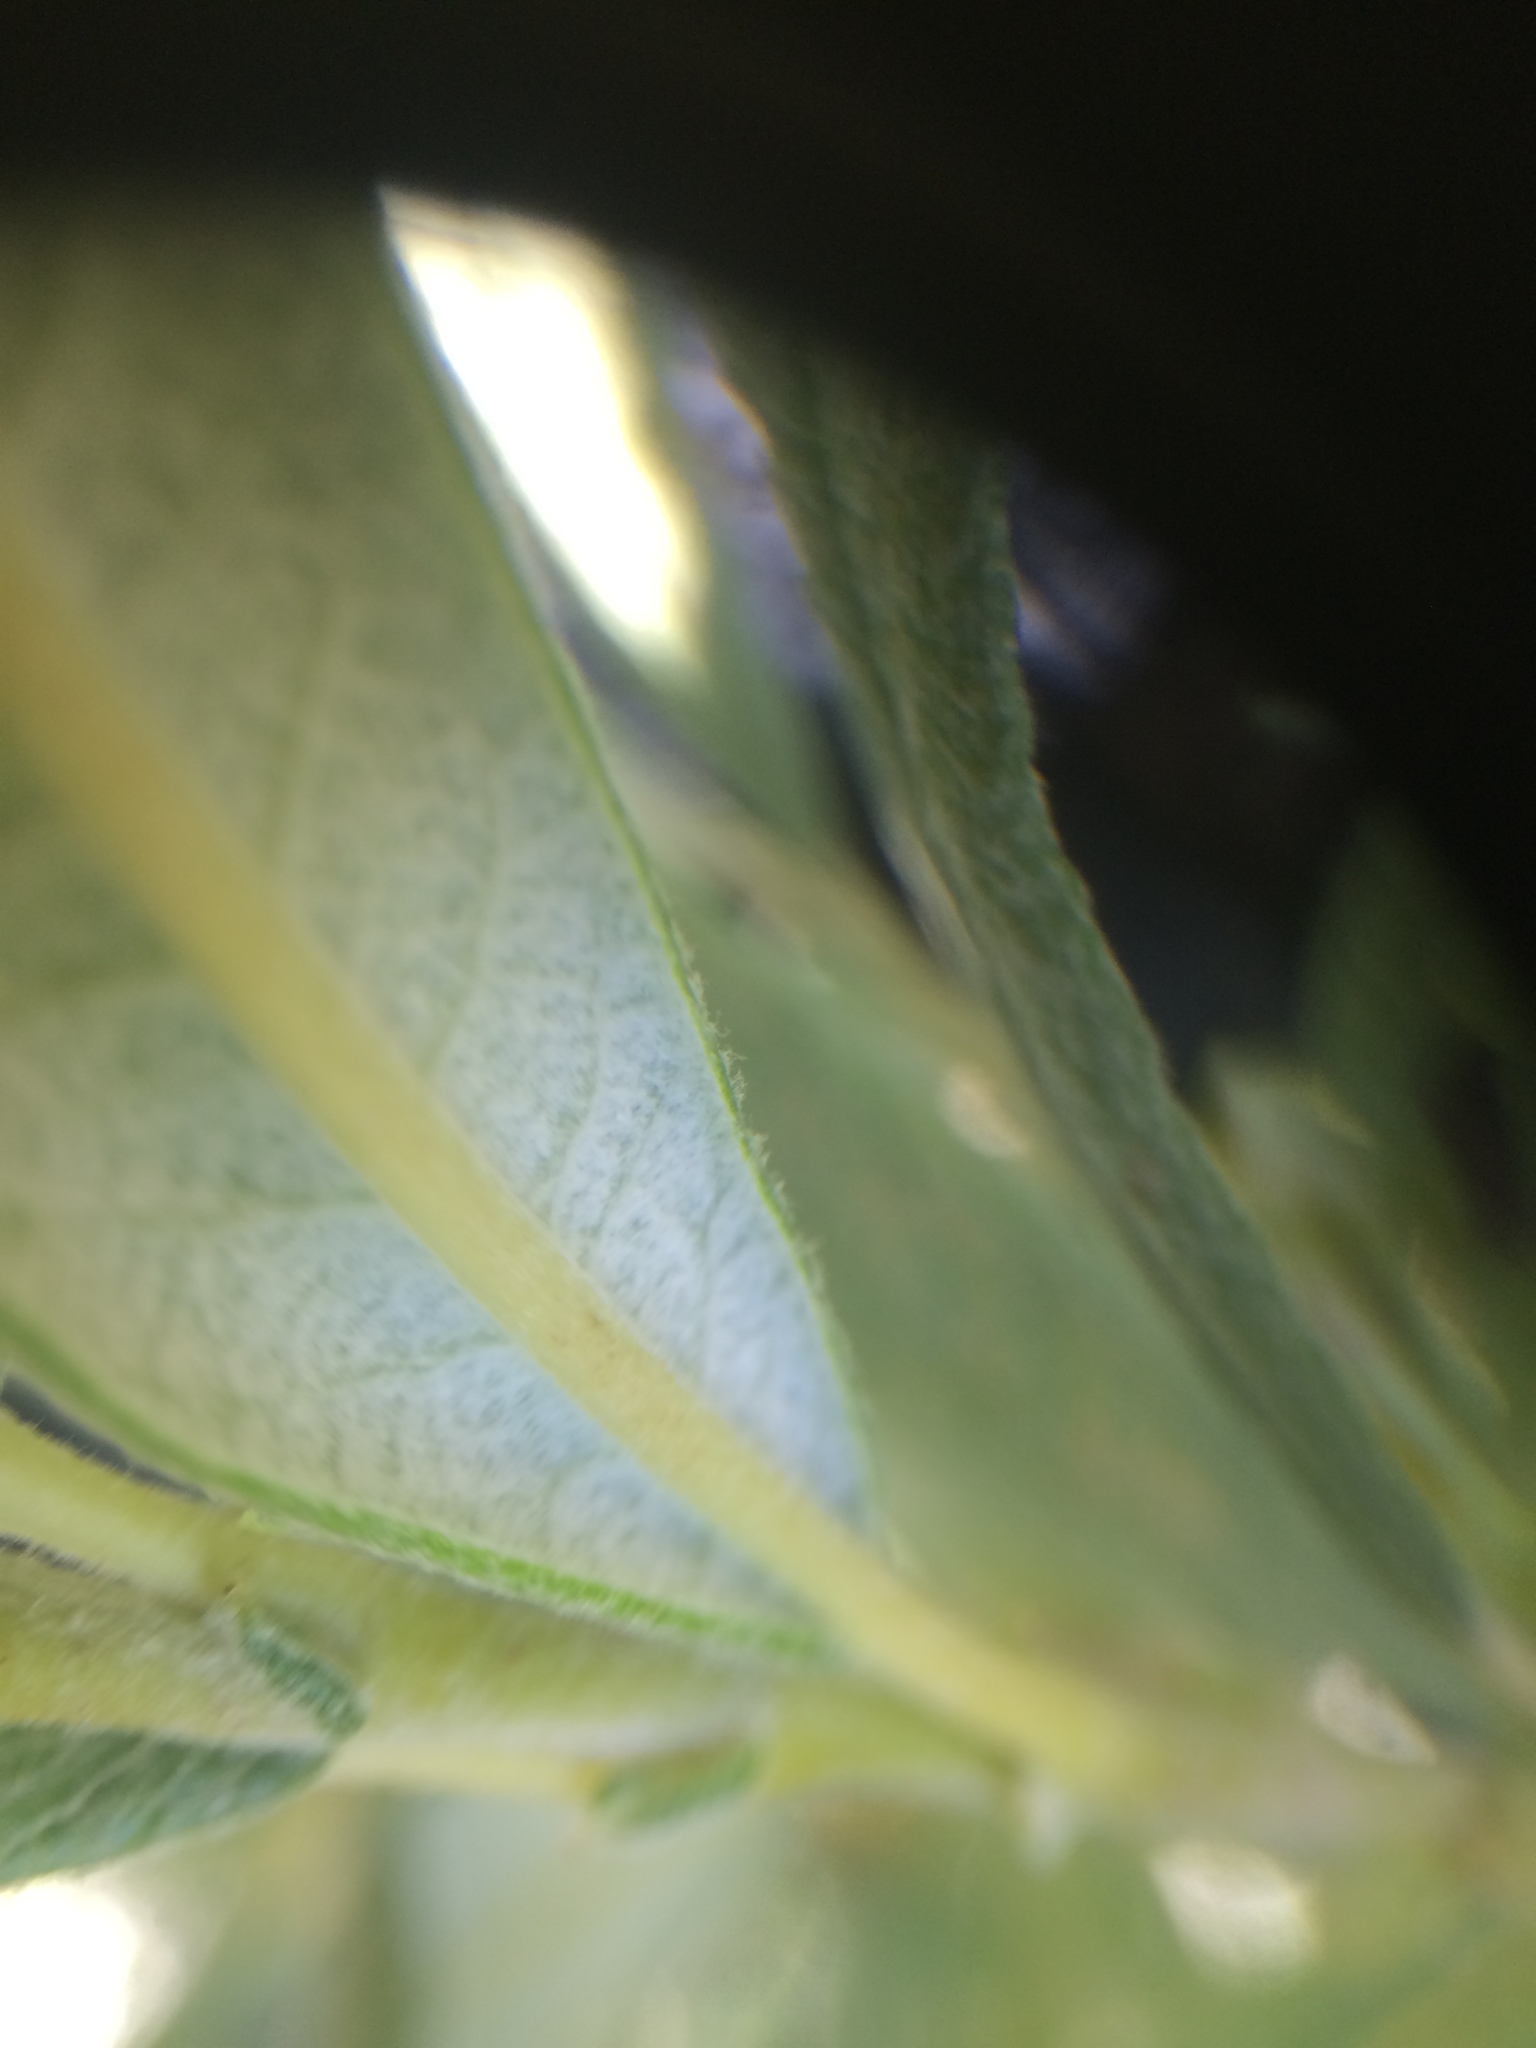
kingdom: Plantae
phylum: Tracheophyta
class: Magnoliopsida
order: Malpighiales
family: Salicaceae
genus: Salix
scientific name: Salix candida
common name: Hoary willow
